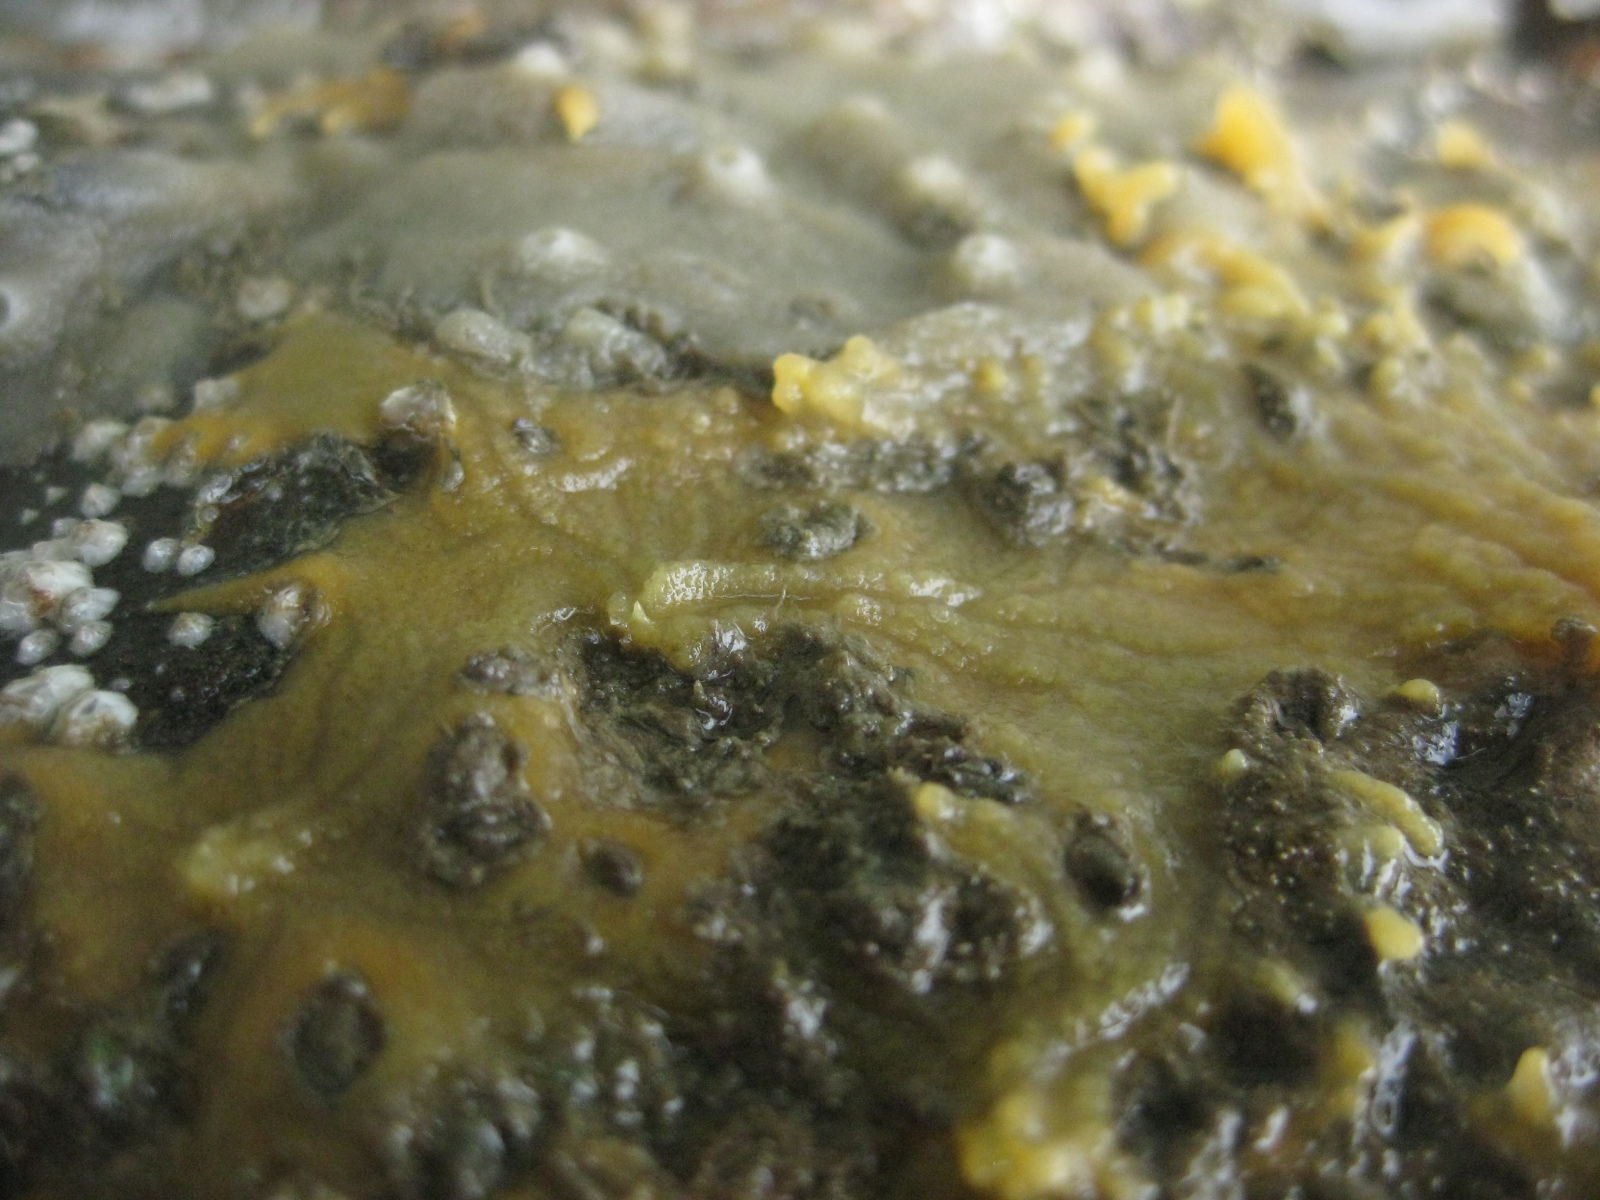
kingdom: Animalia
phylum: Porifera
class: Demospongiae
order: Tethyida
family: Timeidae
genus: Timea
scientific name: Timea aurantiaca
